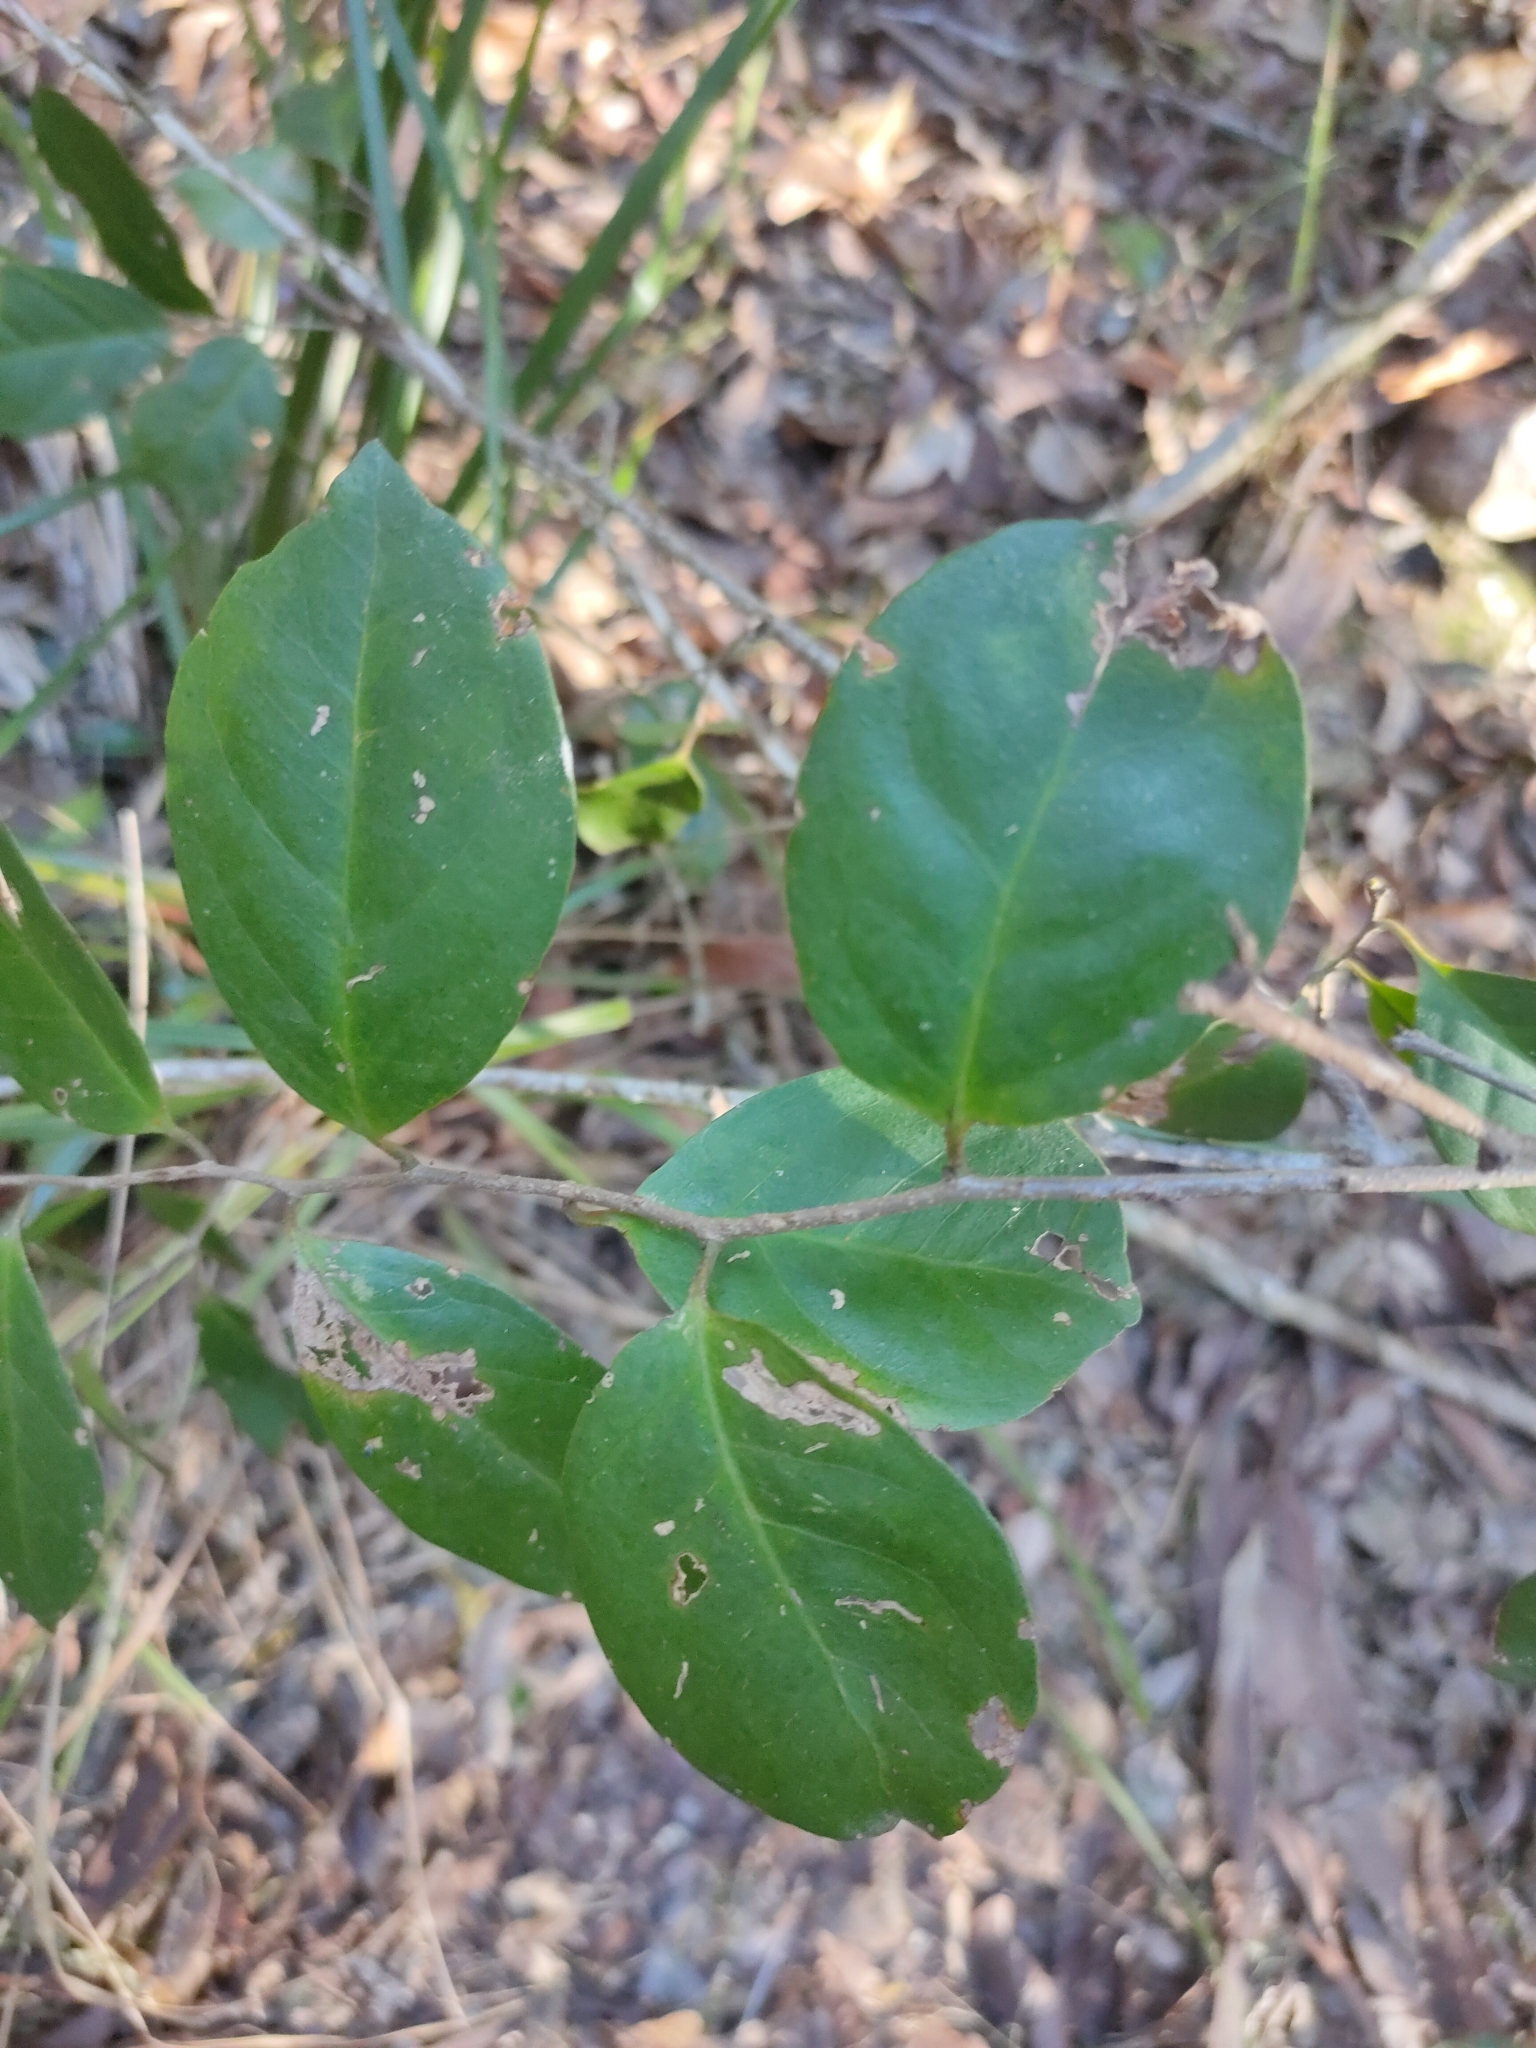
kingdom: Plantae
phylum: Tracheophyta
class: Magnoliopsida
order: Ericales
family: Primulaceae
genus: Embelia
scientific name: Embelia australiana
